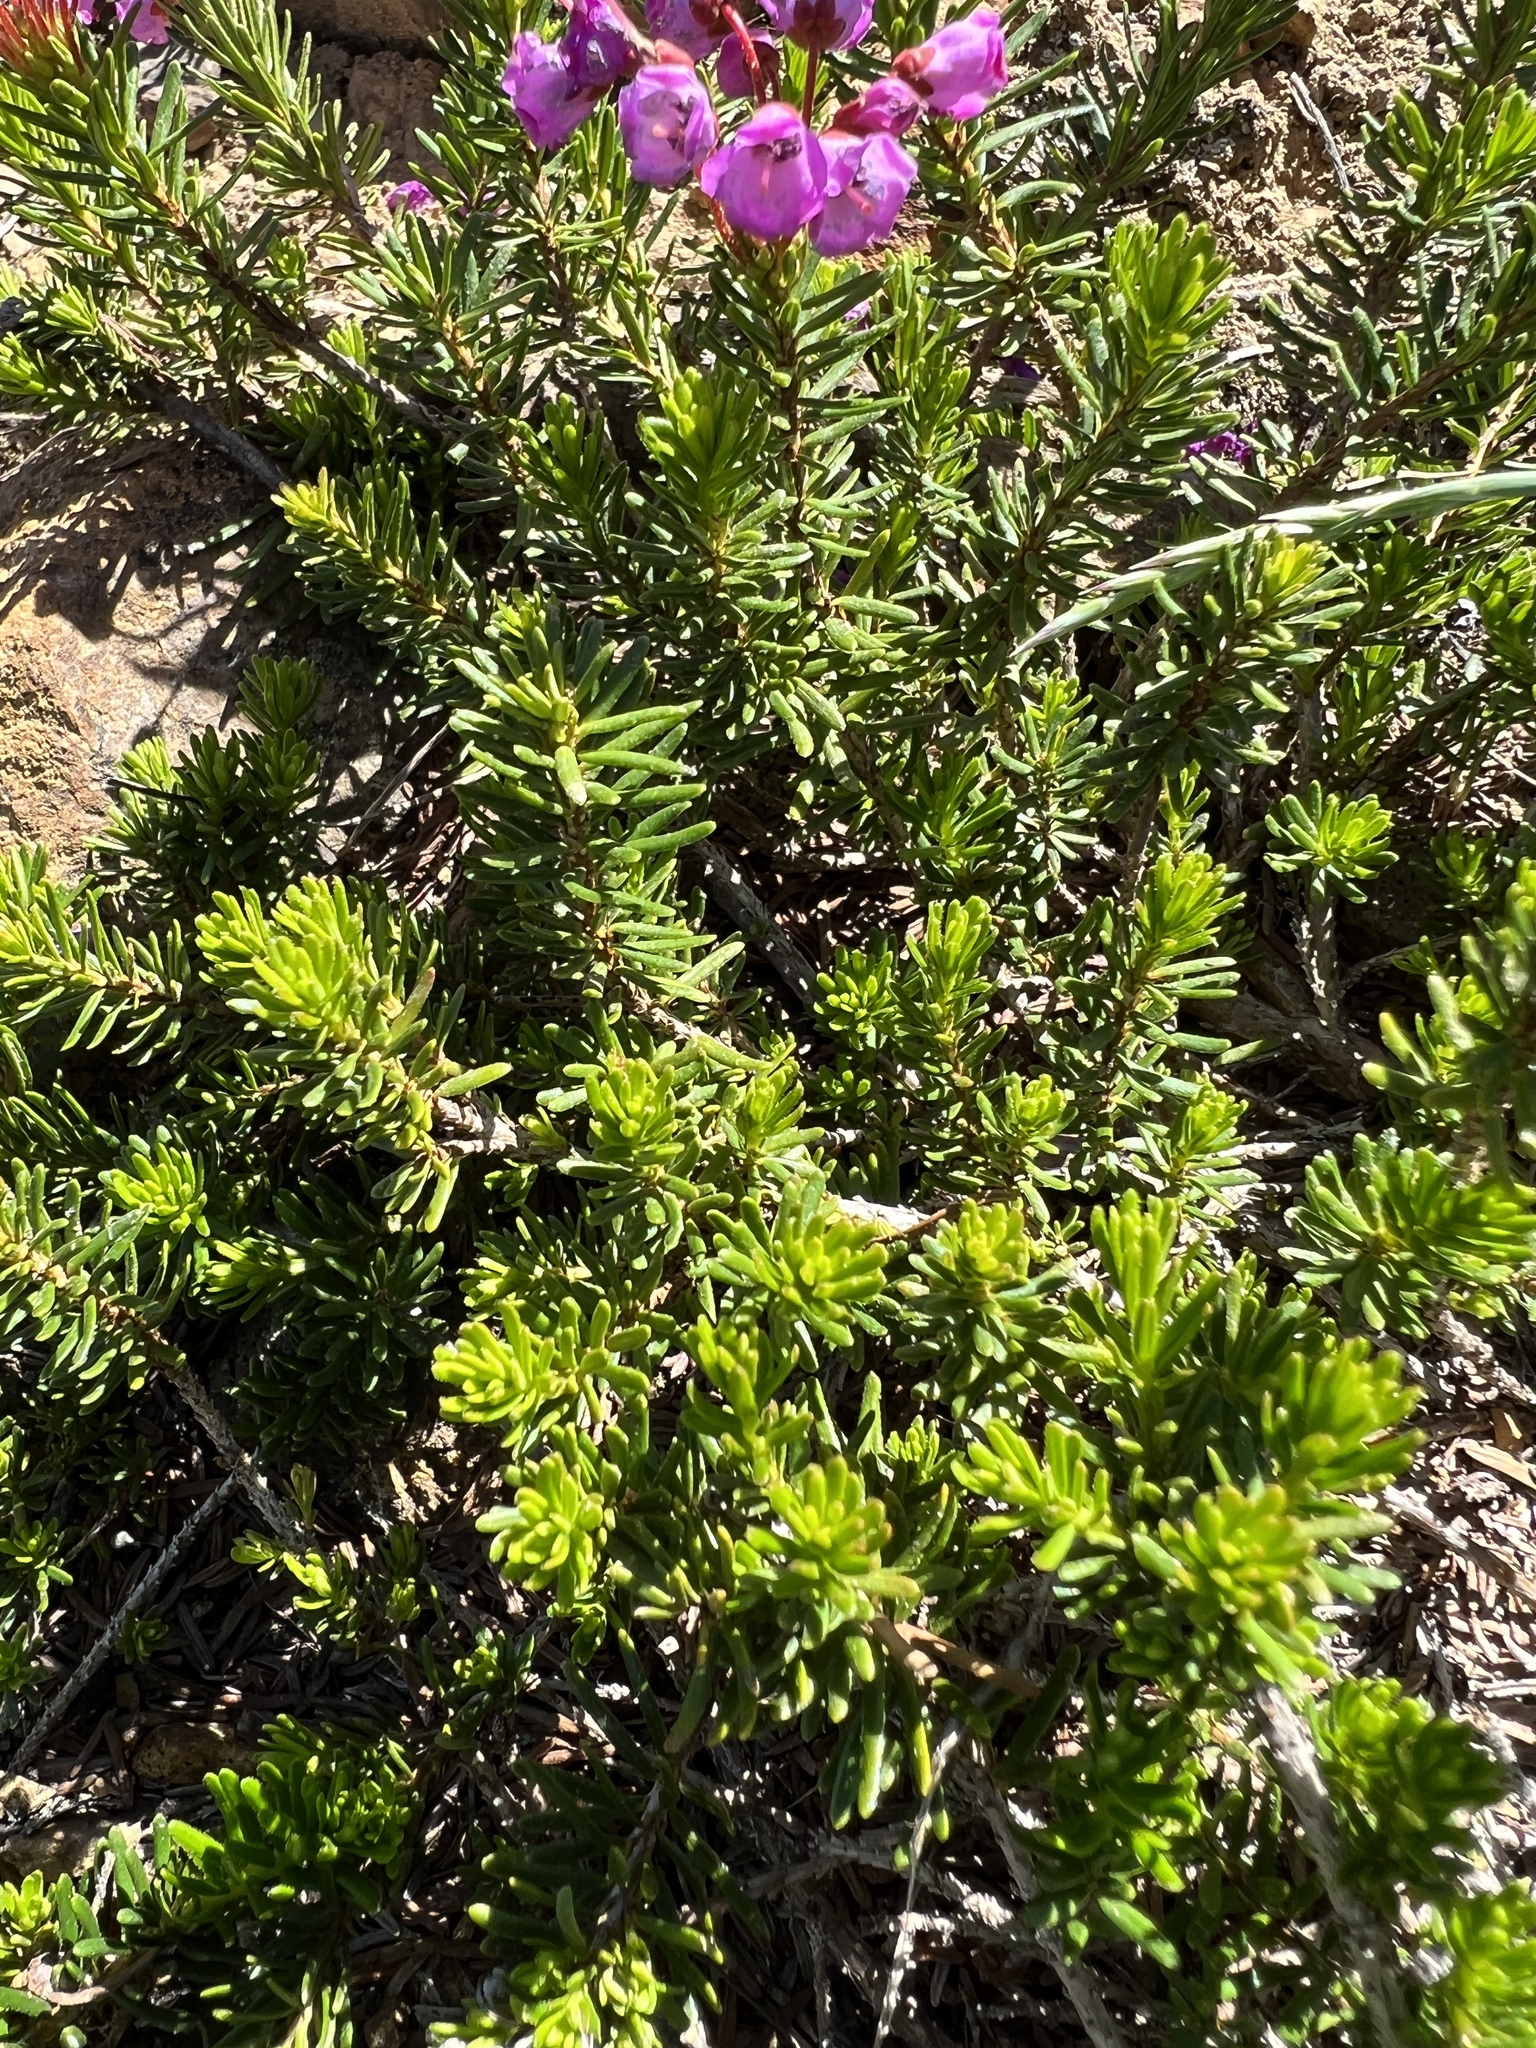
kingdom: Plantae
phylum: Tracheophyta
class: Magnoliopsida
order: Ericales
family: Ericaceae
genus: Phyllodoce
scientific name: Phyllodoce empetriformis
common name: Pink mountain heather
